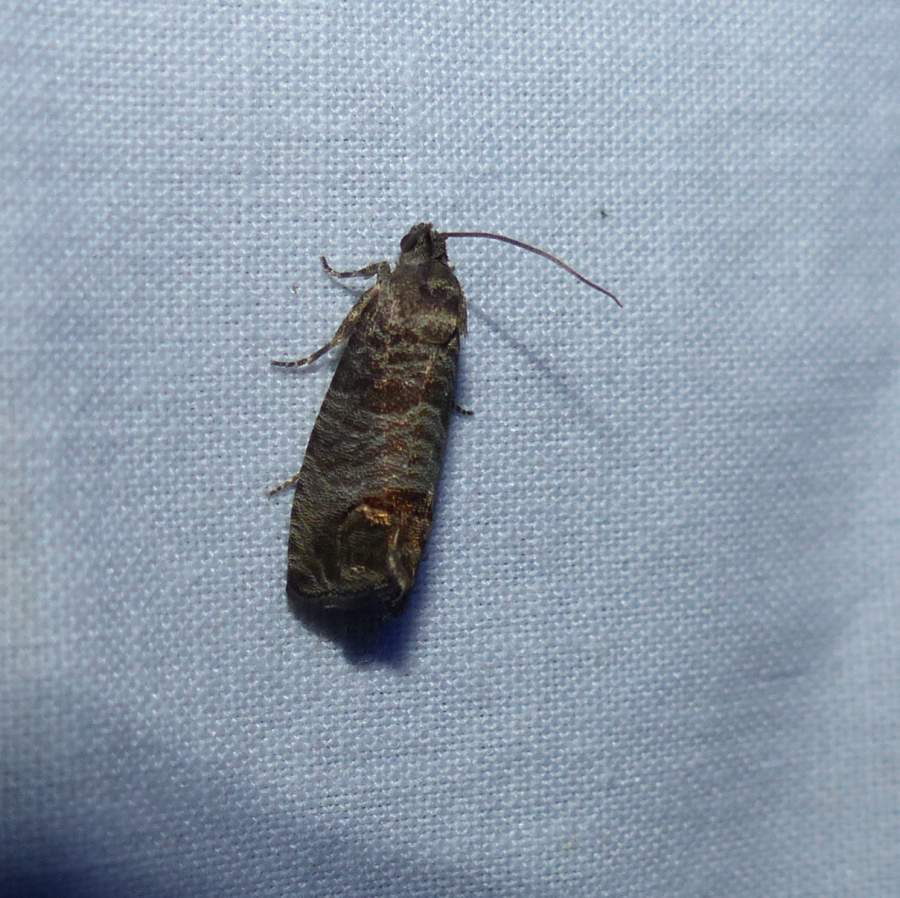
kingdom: Animalia
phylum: Arthropoda
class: Insecta
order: Lepidoptera
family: Tortricidae
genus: Cydia
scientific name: Cydia pomonella
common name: Codling moth
